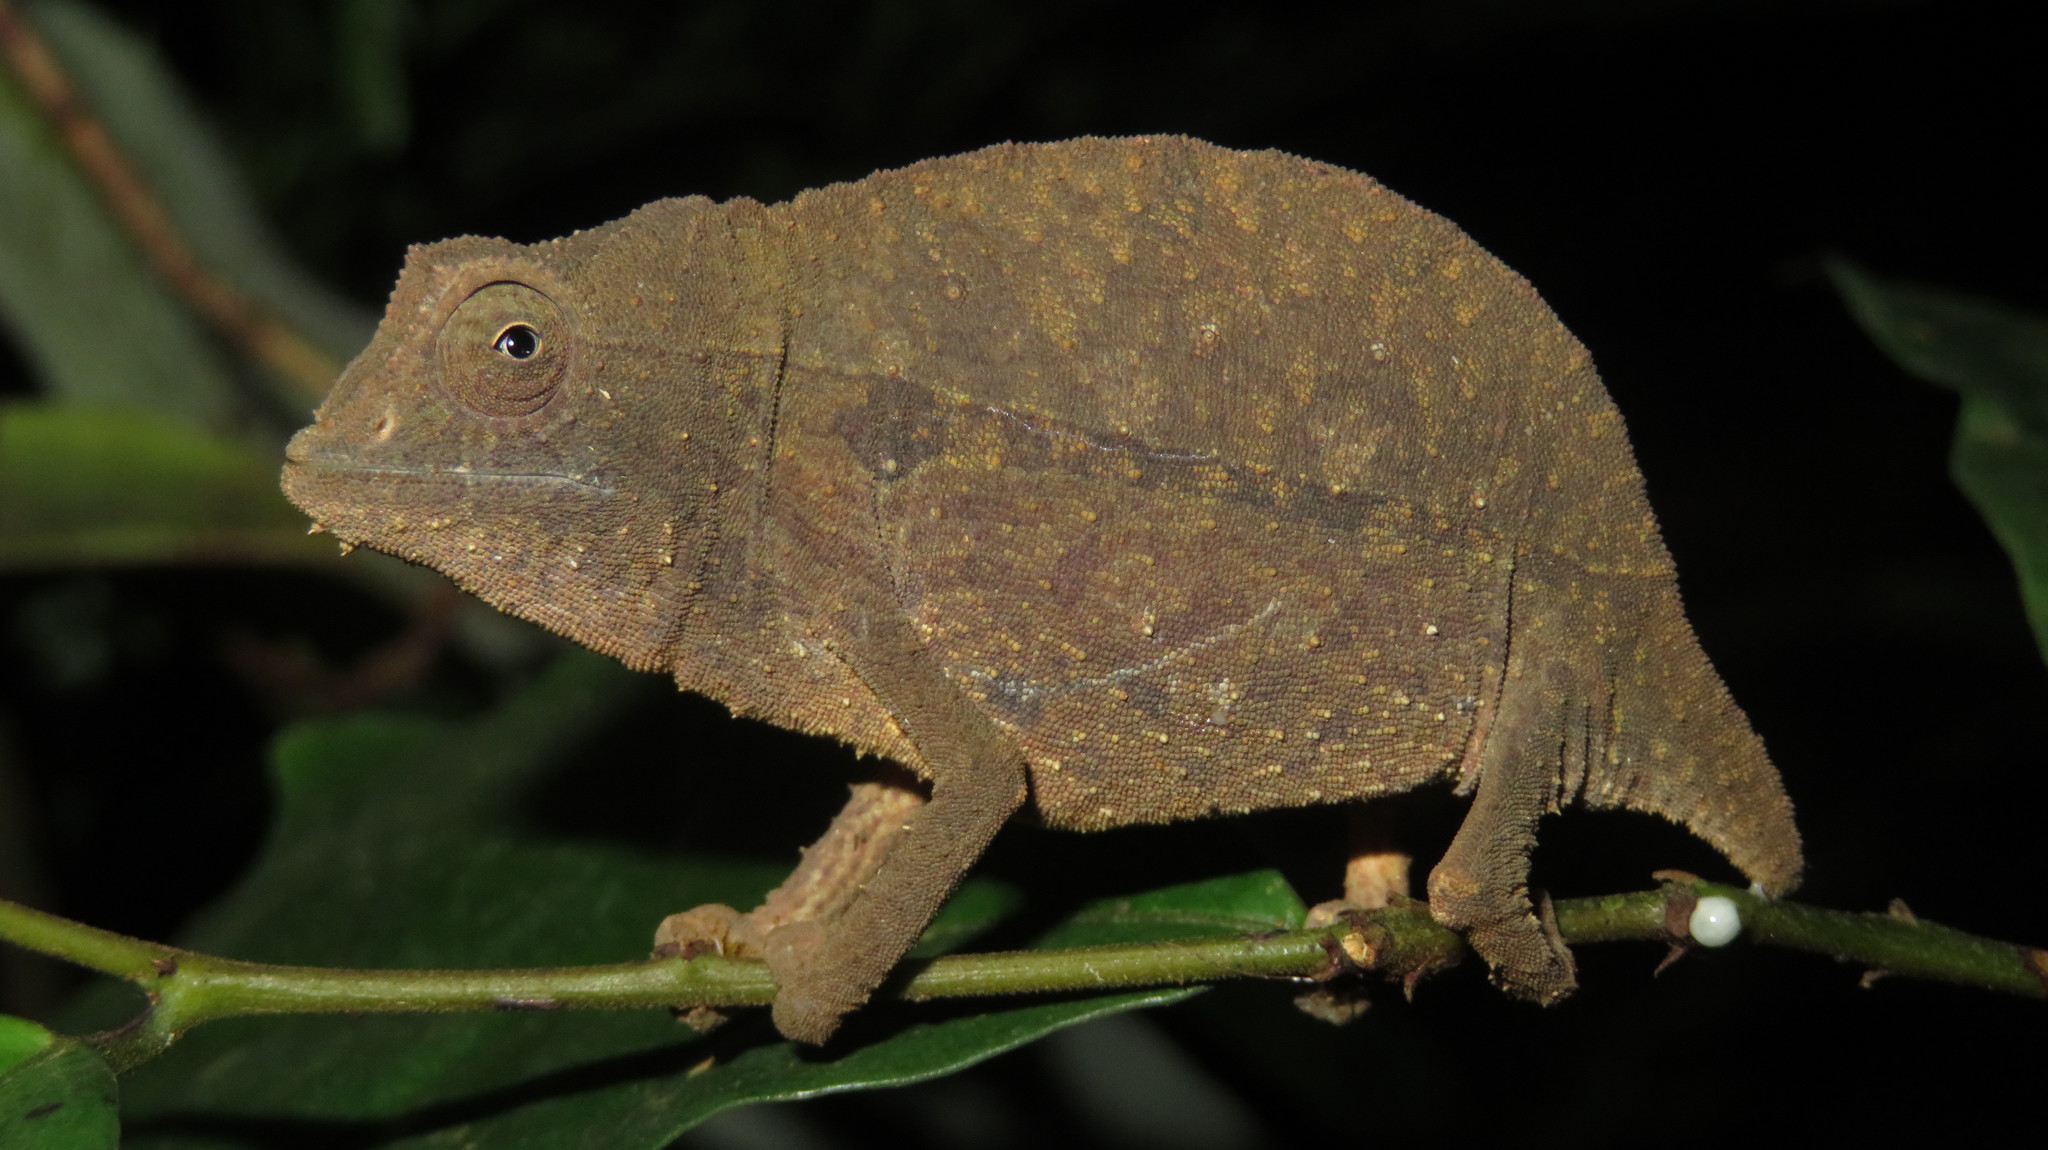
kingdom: Animalia
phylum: Chordata
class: Squamata
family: Chamaeleonidae
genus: Rieppeleon
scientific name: Rieppeleon brevicaudatus
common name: Bearded pygmy chameleon
